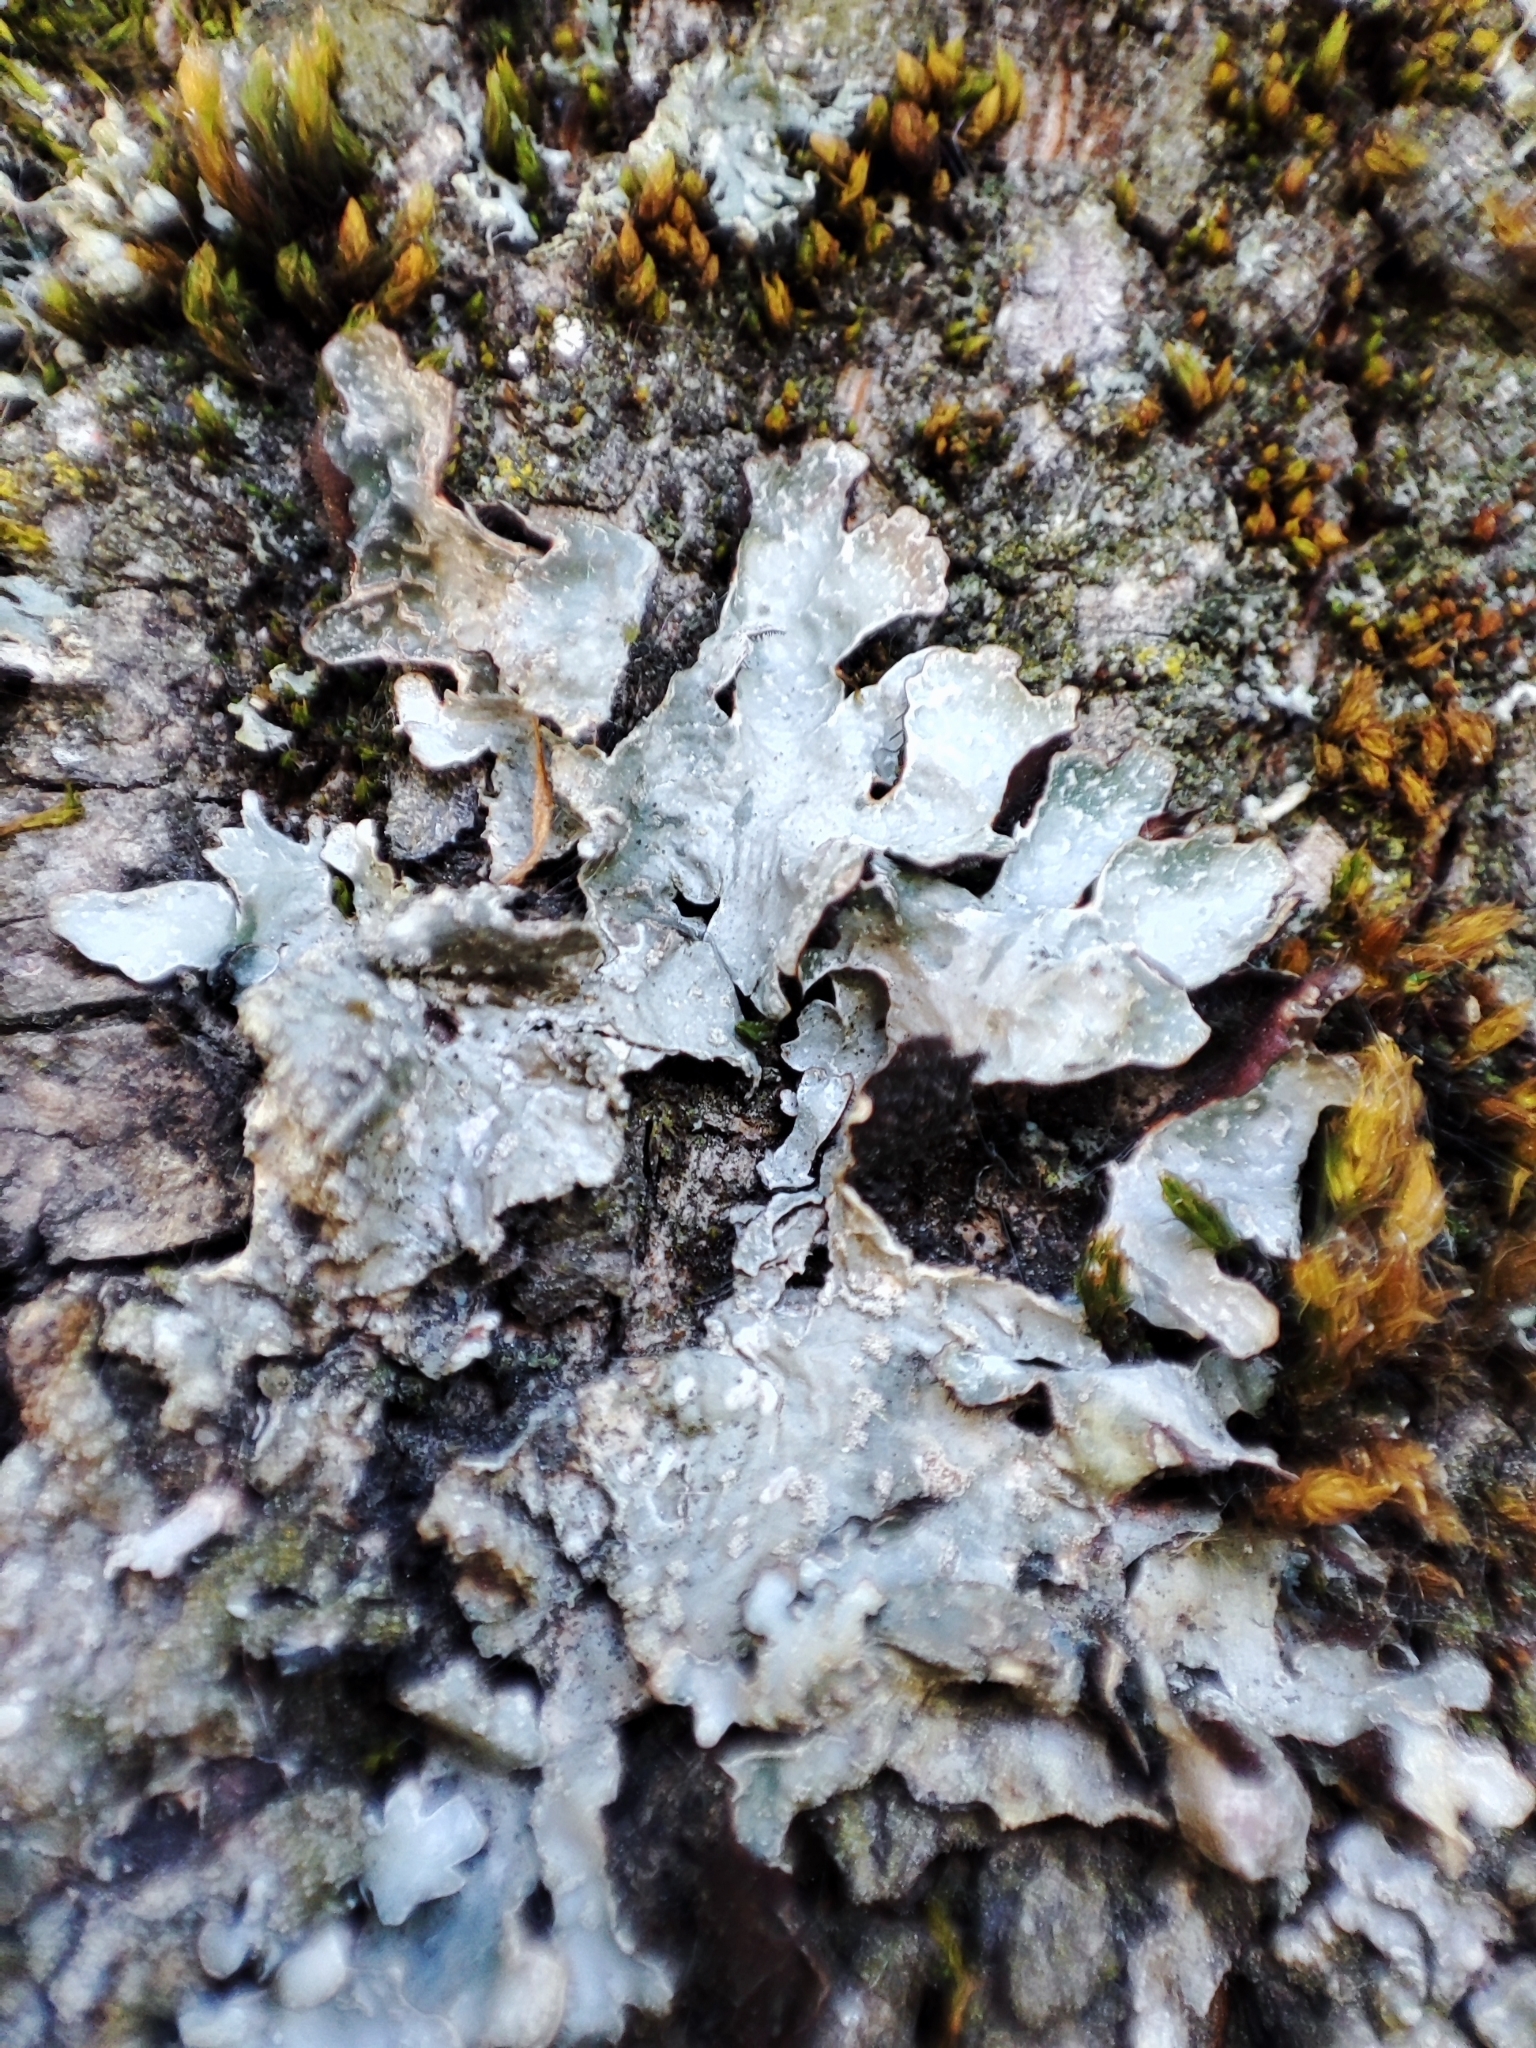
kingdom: Fungi
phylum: Ascomycota
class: Lecanoromycetes
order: Lecanorales
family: Parmeliaceae
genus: Parmelia
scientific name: Parmelia sulcata
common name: Netted shield lichen
